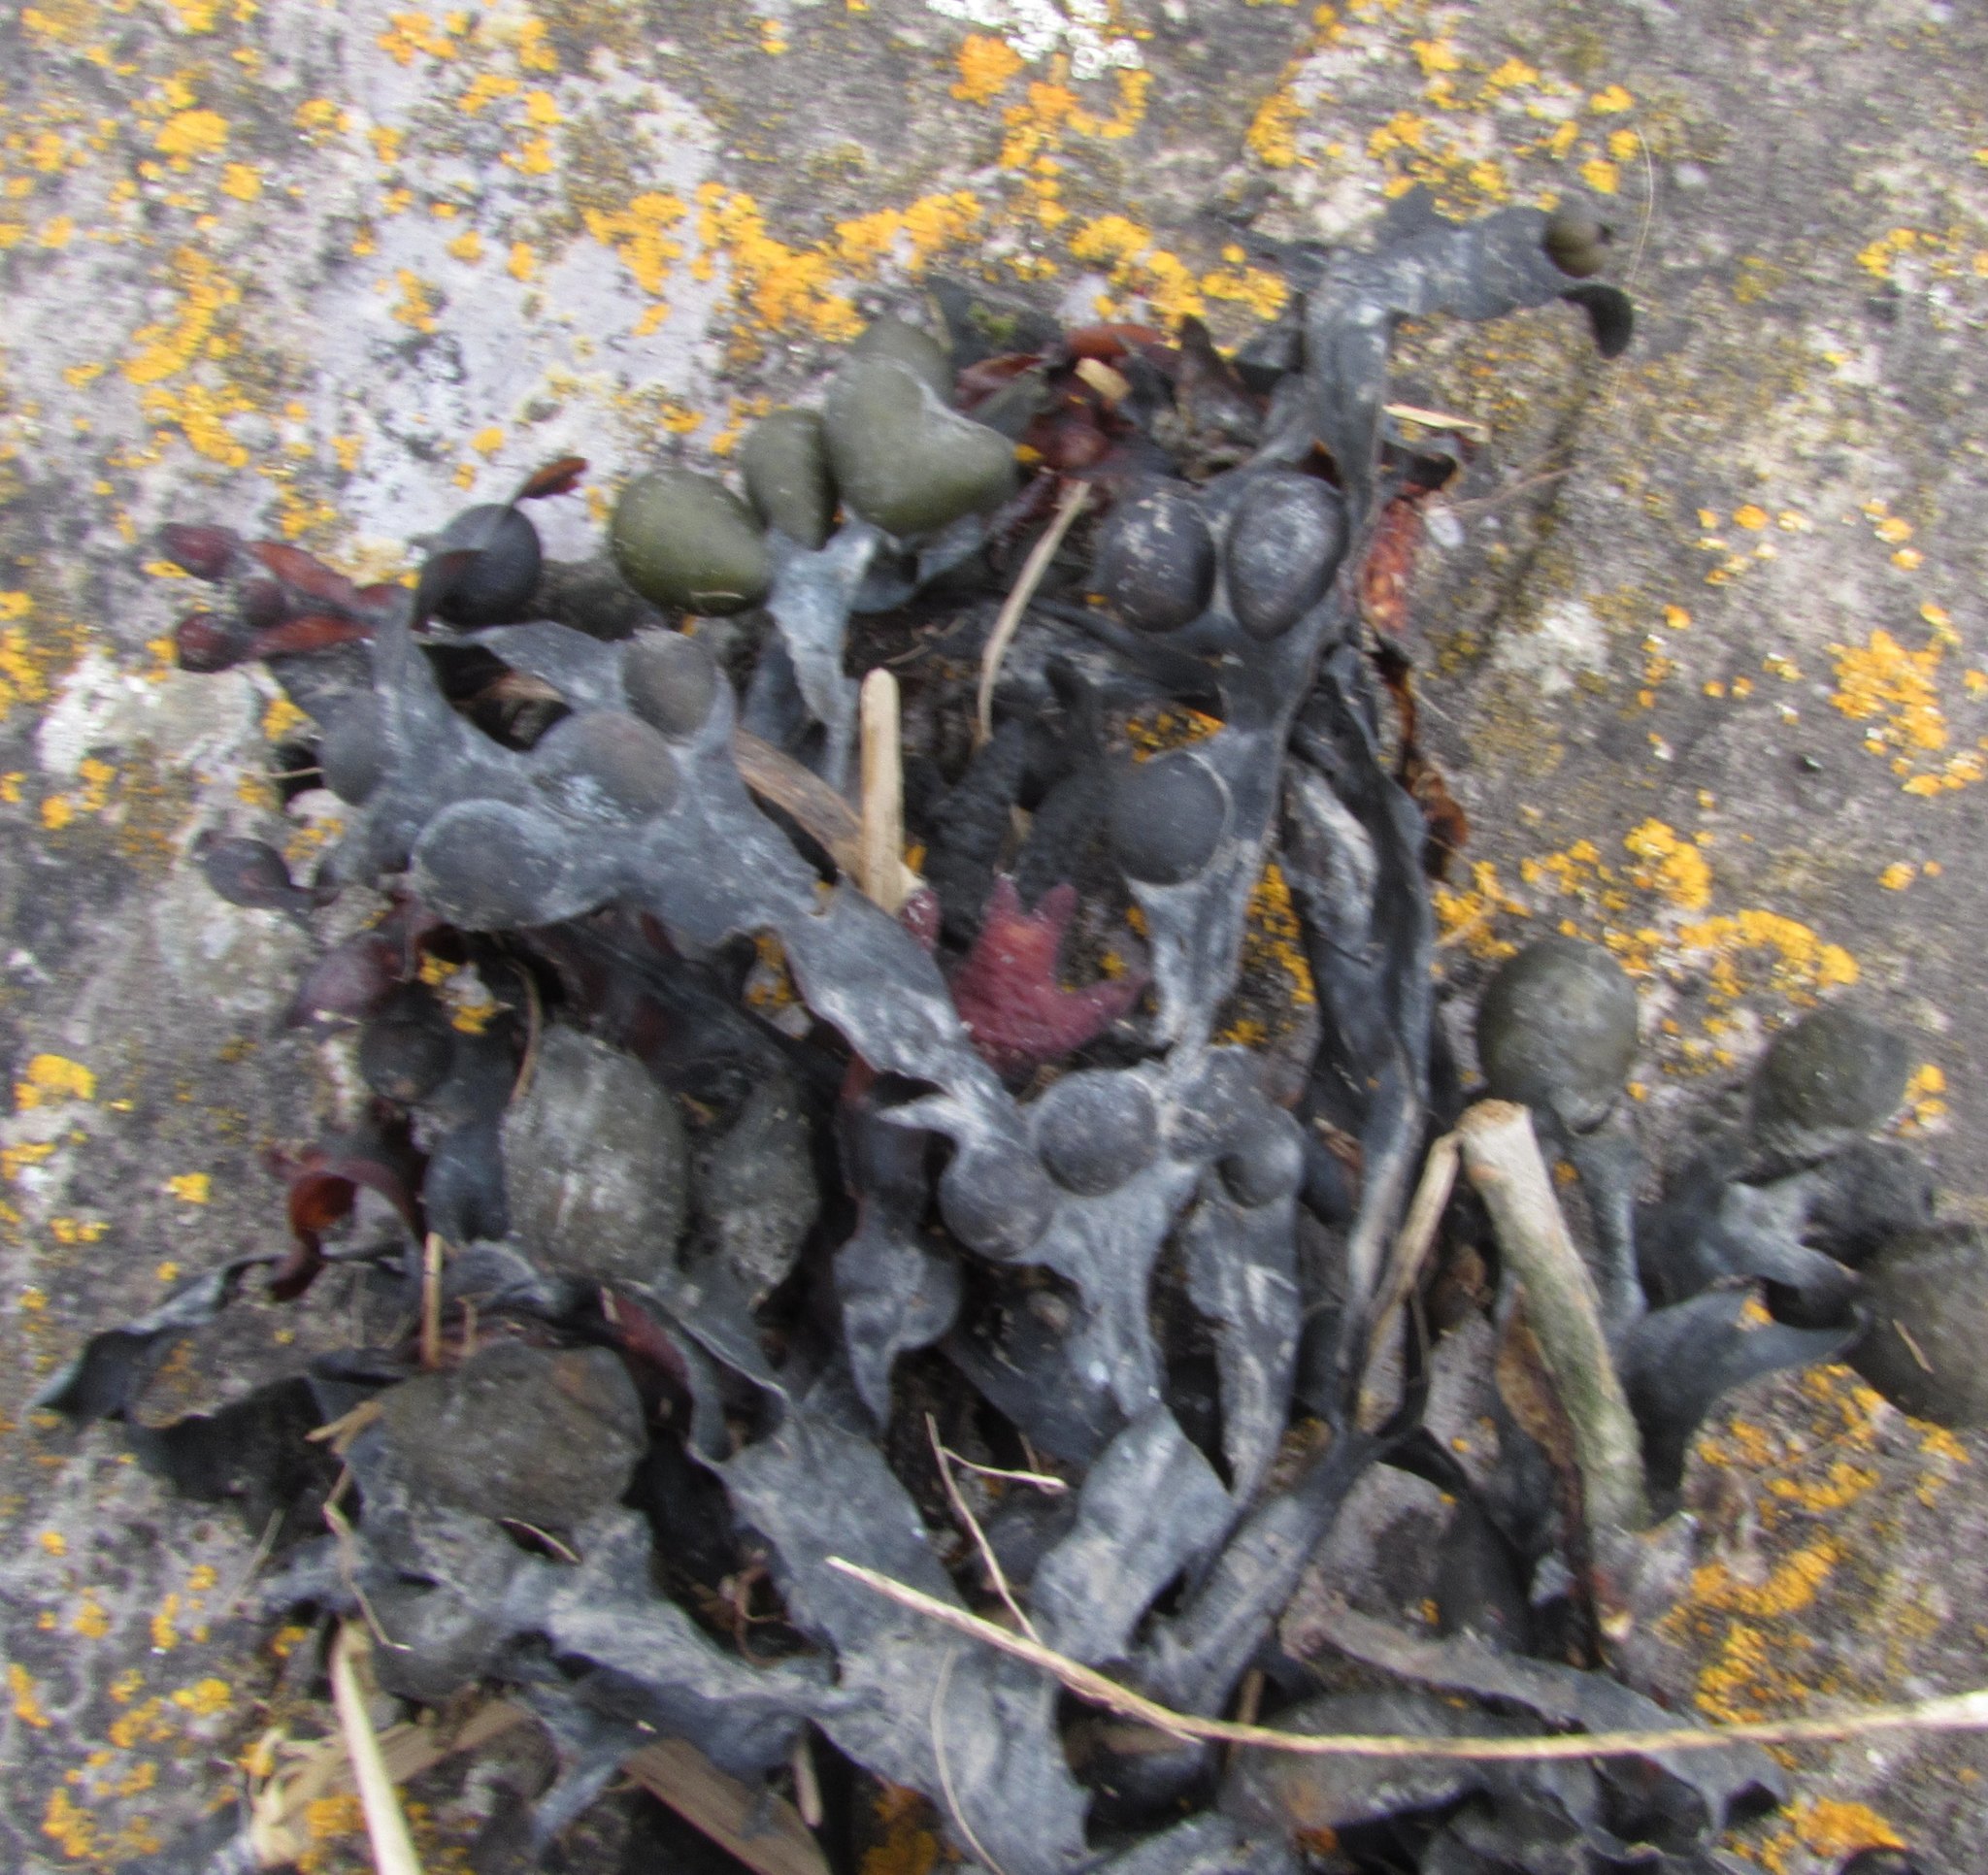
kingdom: Chromista
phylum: Ochrophyta
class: Phaeophyceae
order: Fucales
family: Fucaceae
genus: Fucus
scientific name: Fucus vesiculosus
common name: Bladder wrack
